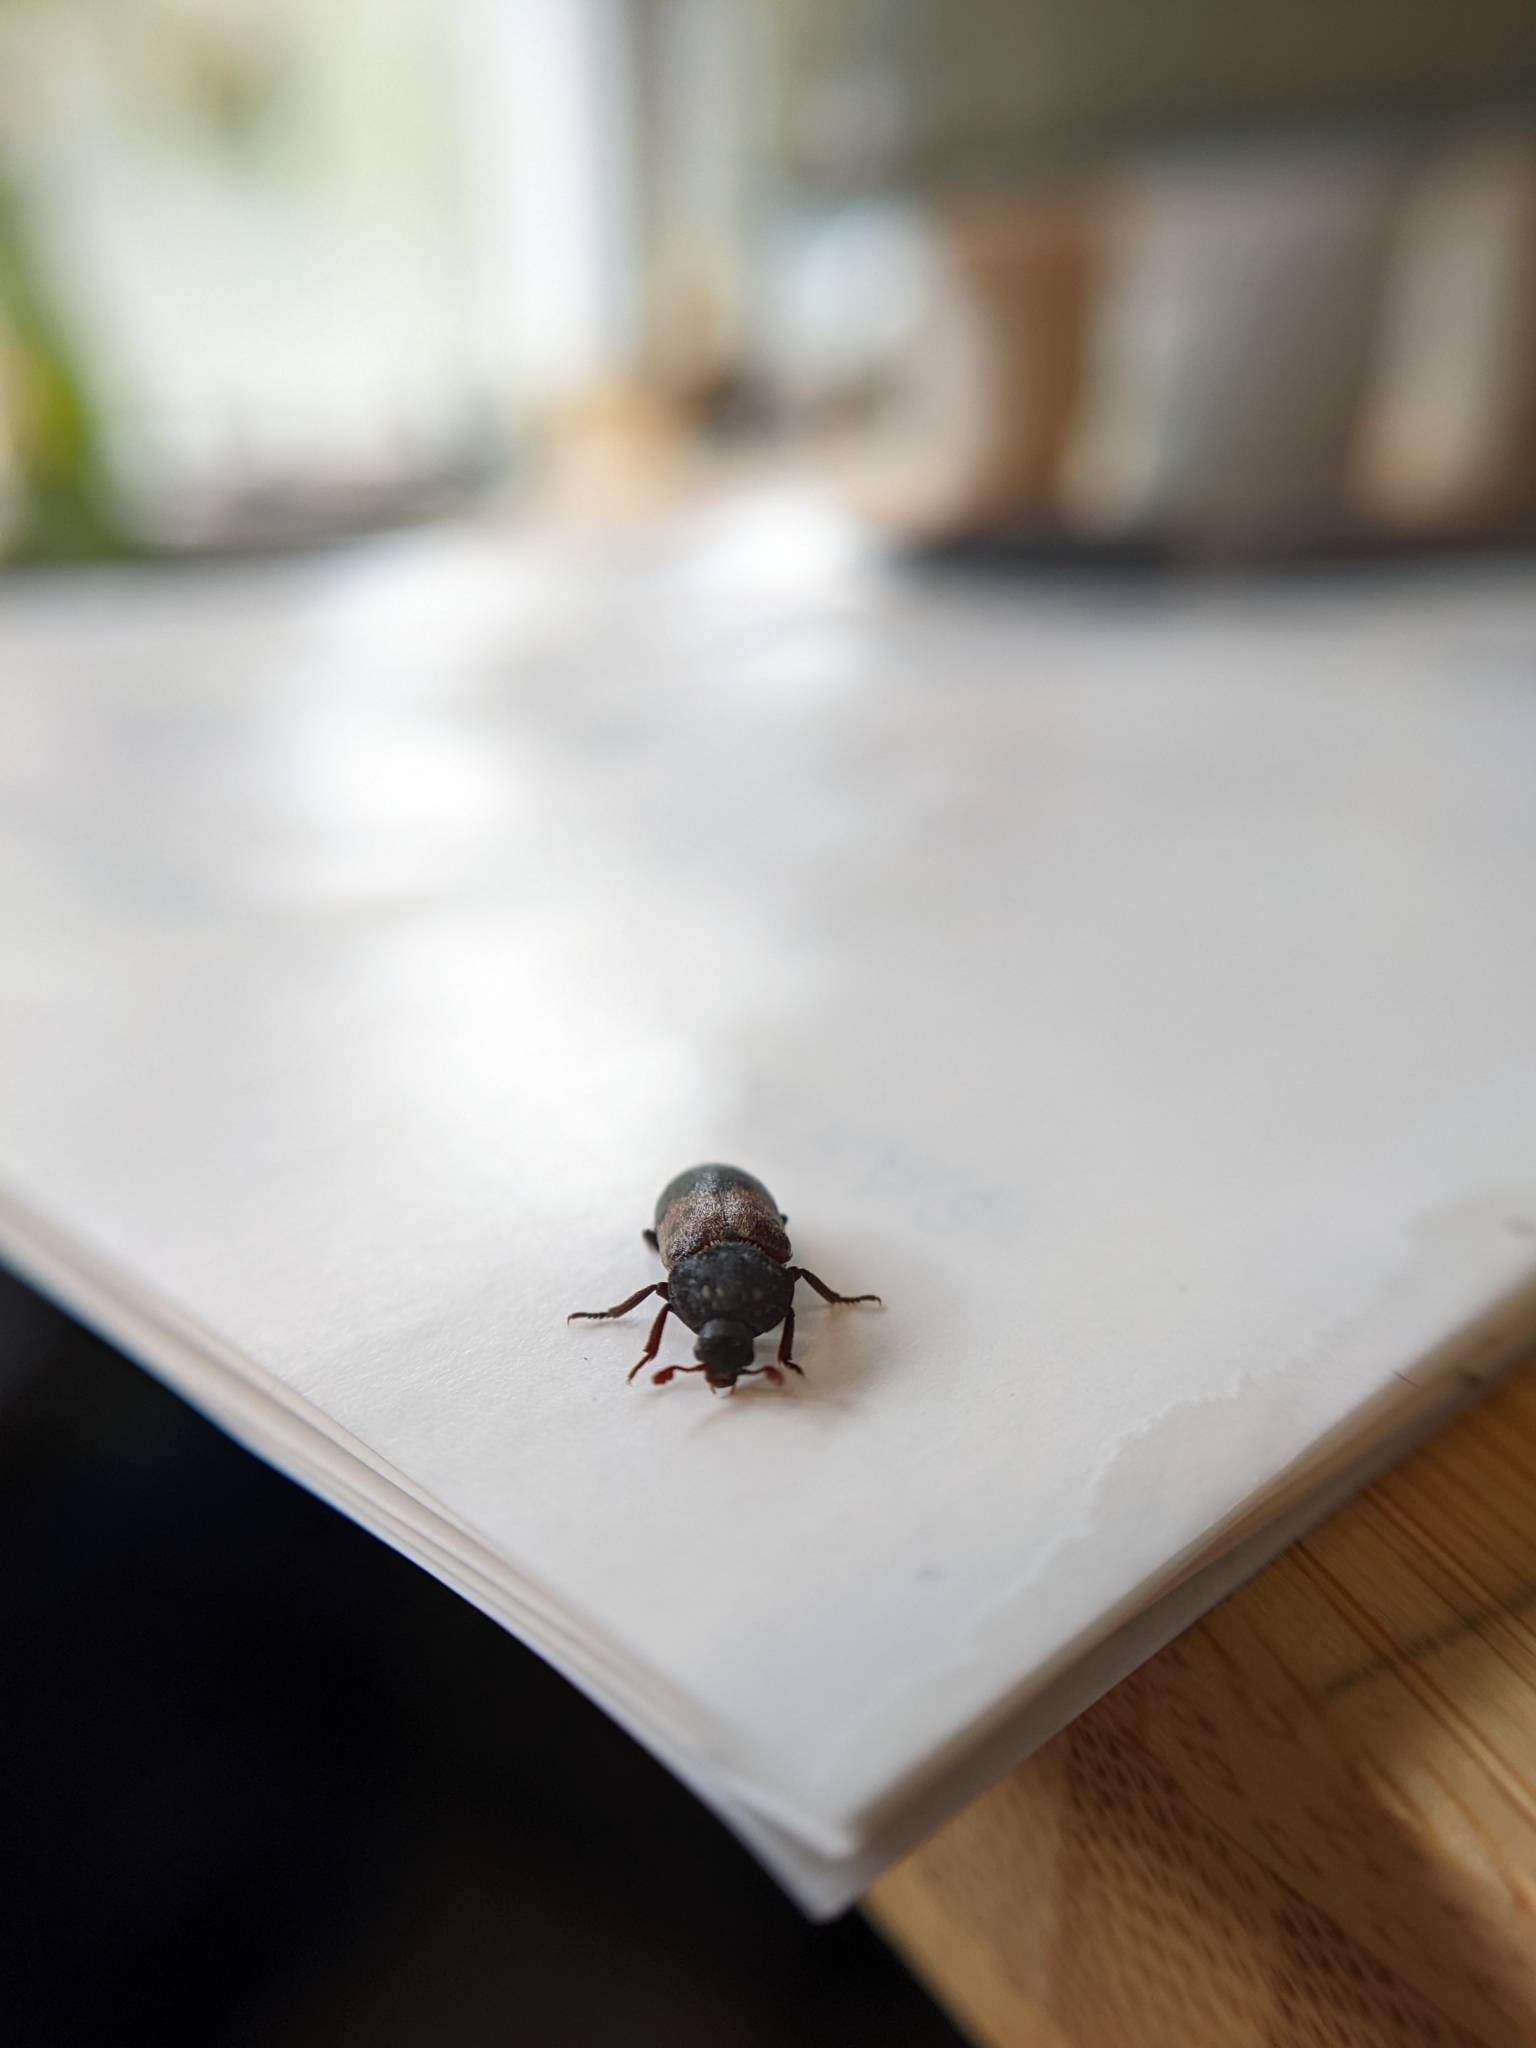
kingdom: Animalia
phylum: Arthropoda
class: Insecta
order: Coleoptera
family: Dermestidae
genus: Dermestes
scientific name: Dermestes lardarius
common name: Larder beetle
